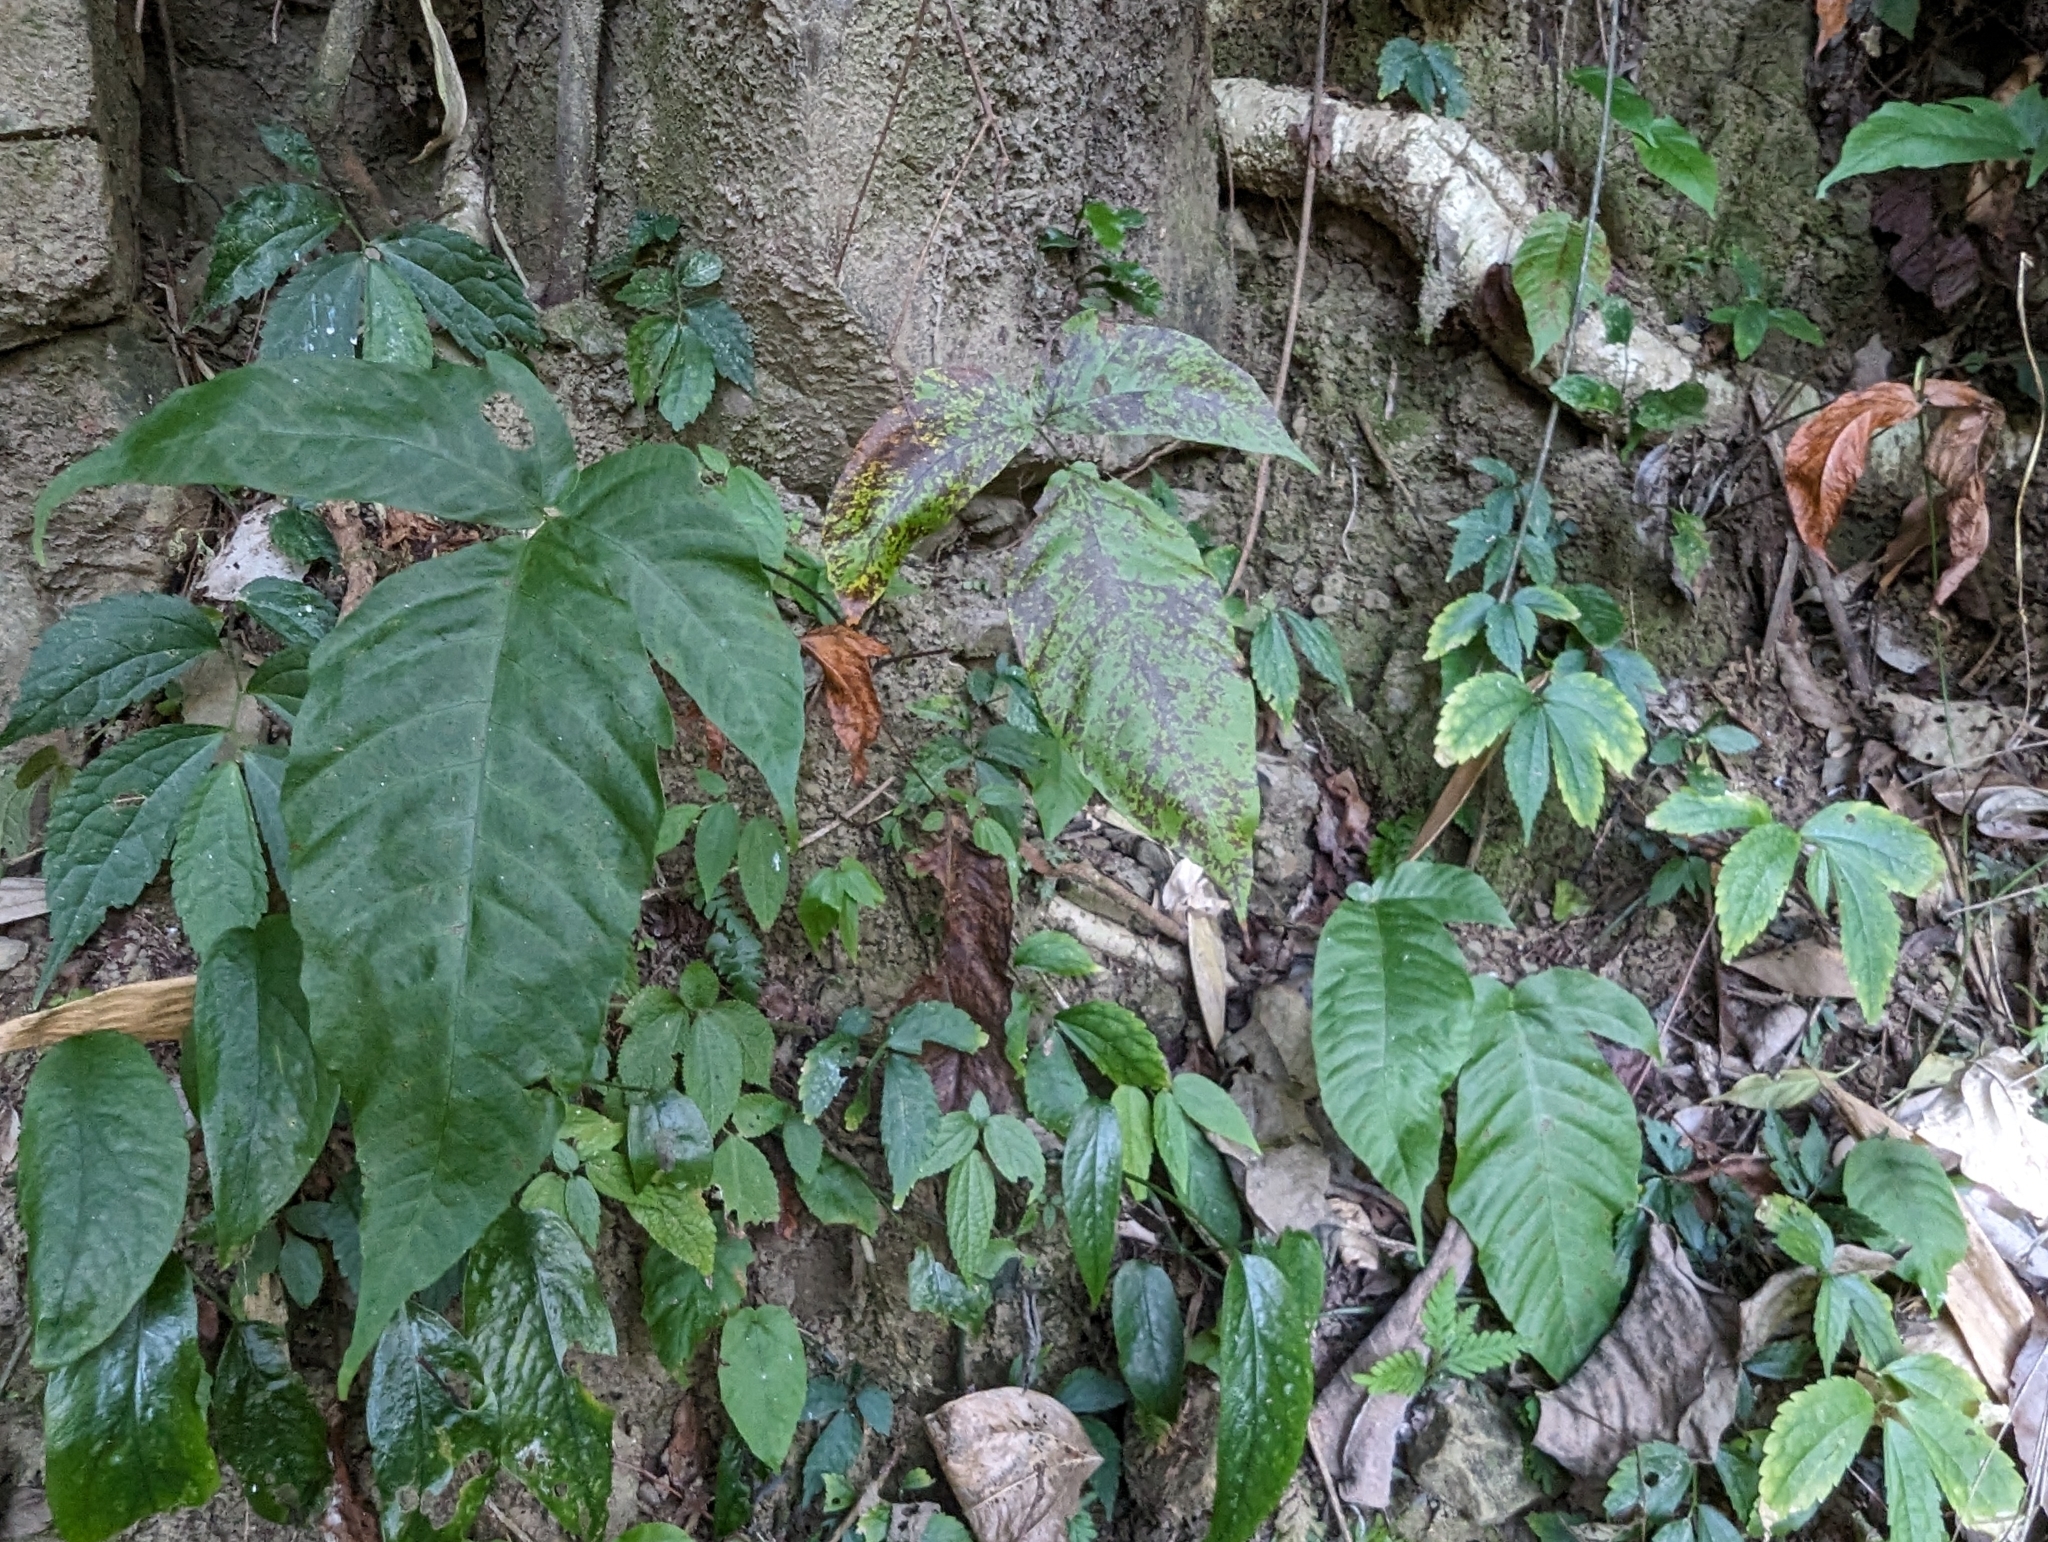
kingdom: Plantae
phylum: Tracheophyta
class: Polypodiopsida
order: Polypodiales
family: Tectariaceae
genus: Tectaria
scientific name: Tectaria polymorpha
